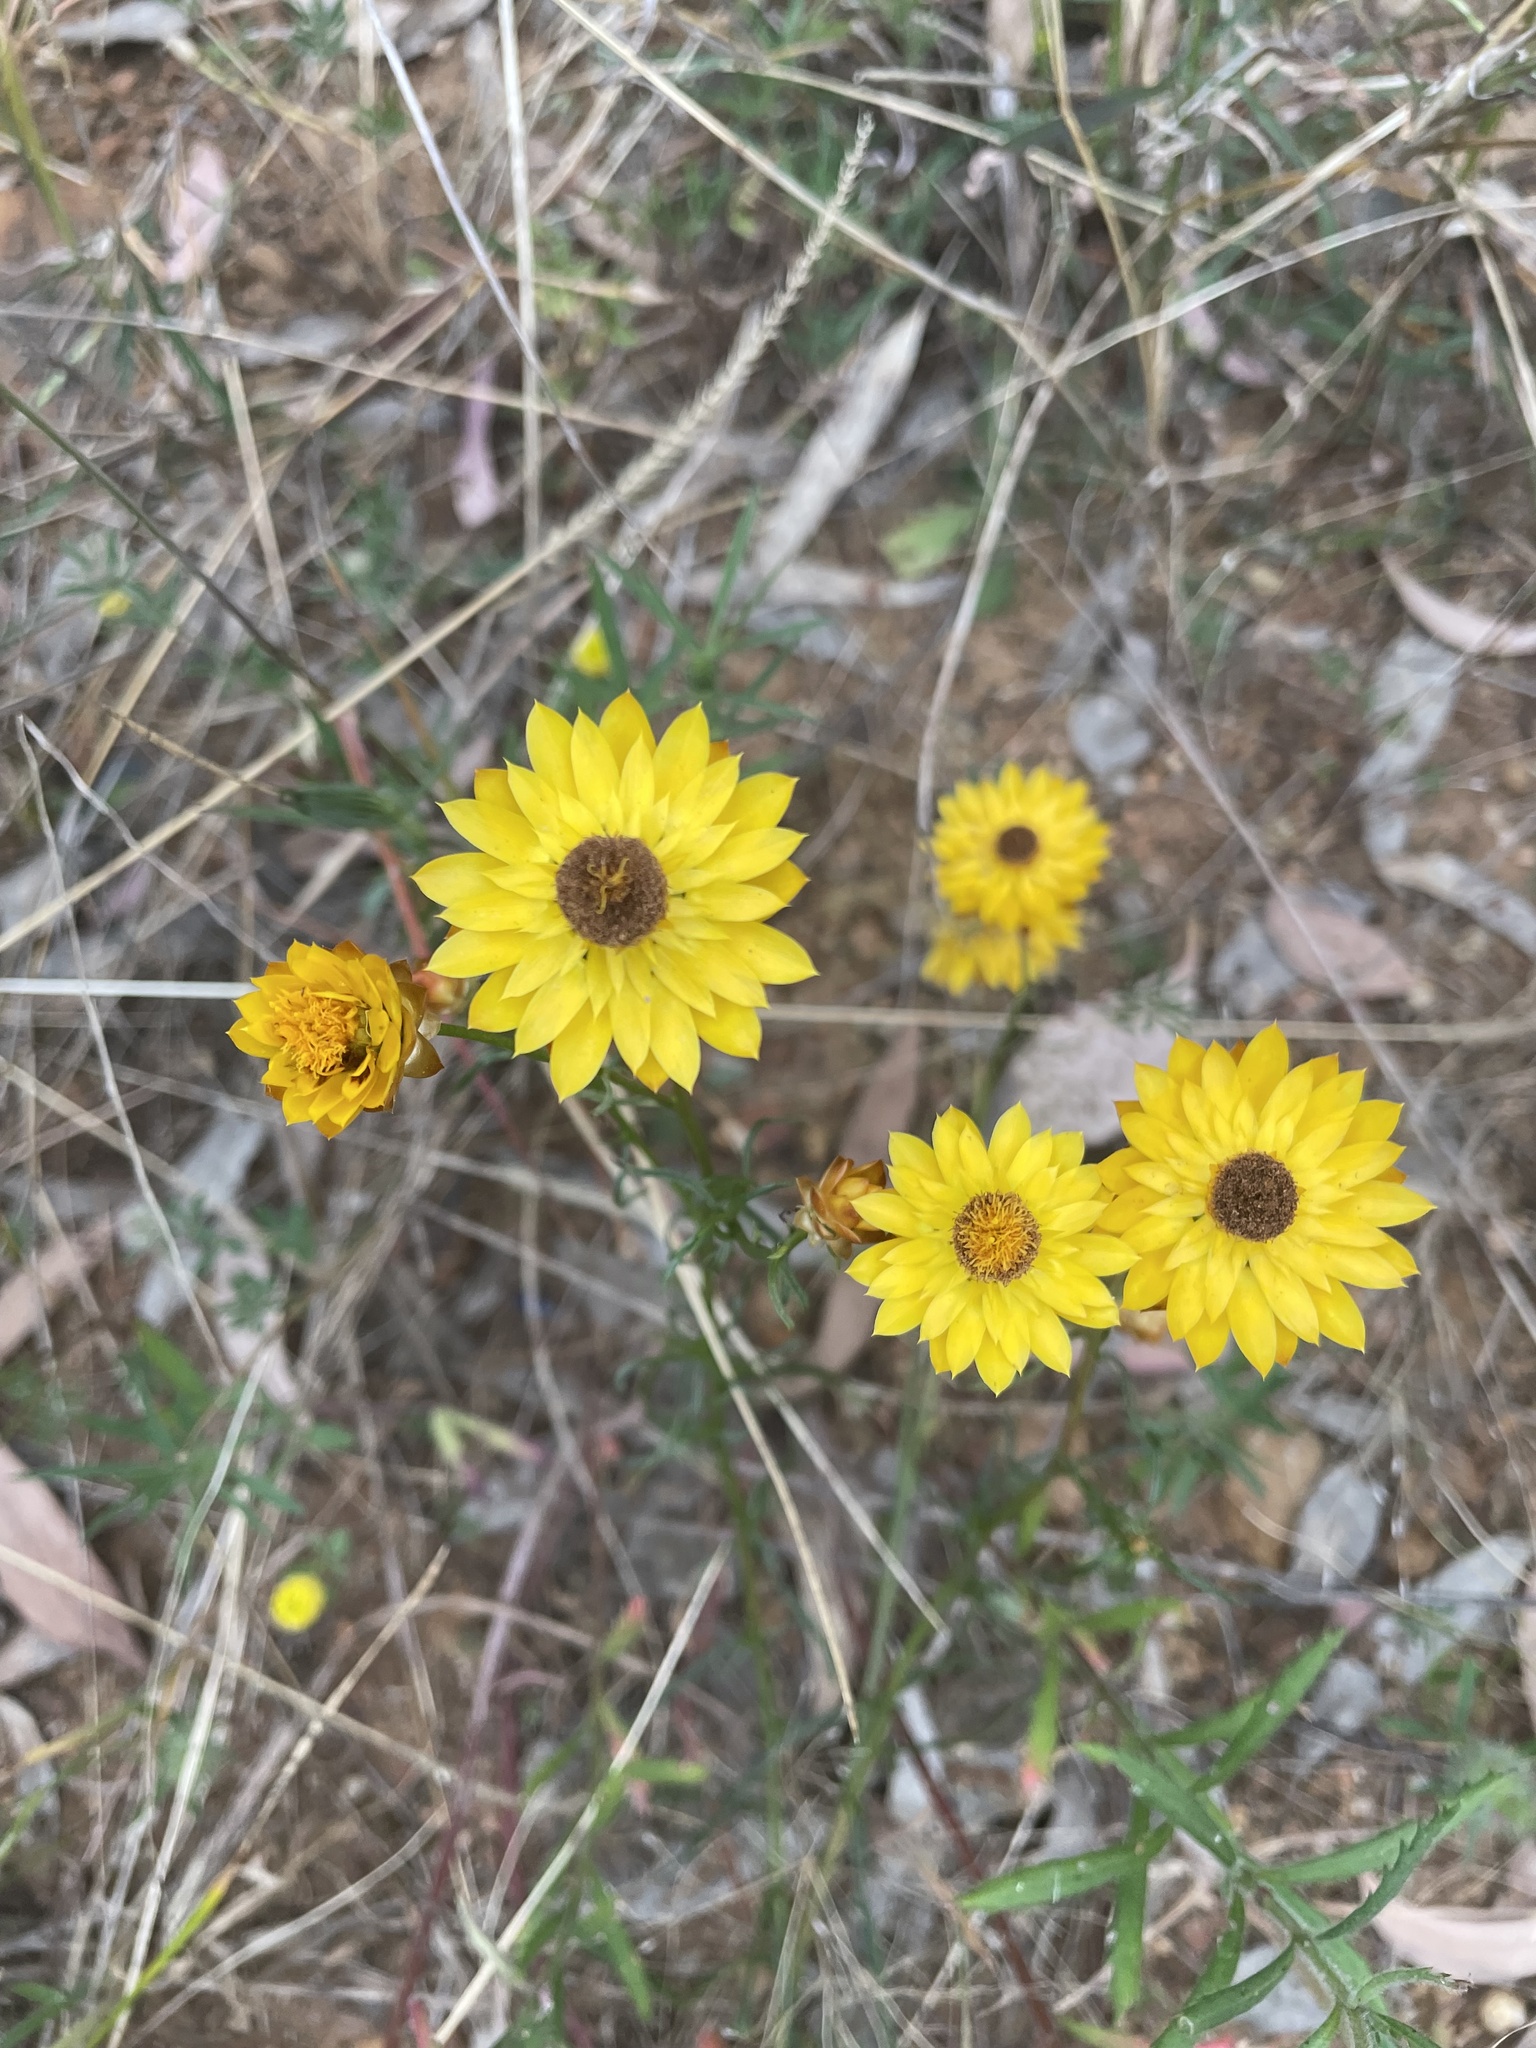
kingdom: Plantae
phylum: Tracheophyta
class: Magnoliopsida
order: Asterales
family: Asteraceae
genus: Xerochrysum
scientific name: Xerochrysum viscosum
